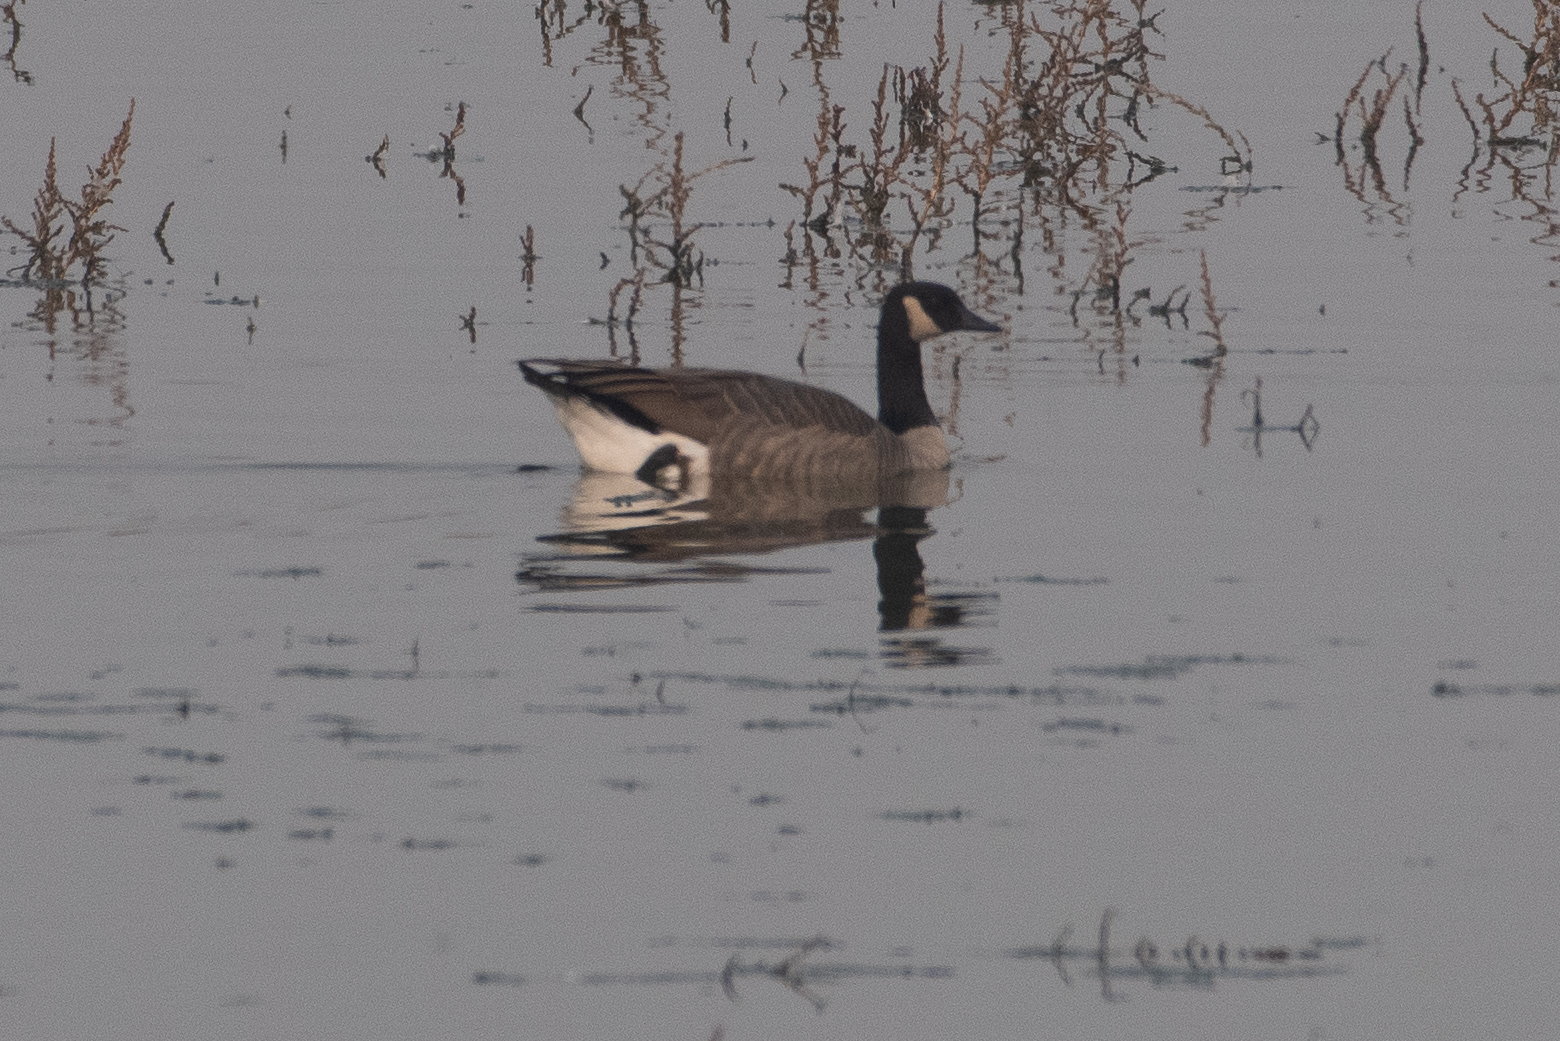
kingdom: Animalia
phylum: Chordata
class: Aves
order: Anseriformes
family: Anatidae
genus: Branta
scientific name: Branta canadensis
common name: Canada goose
